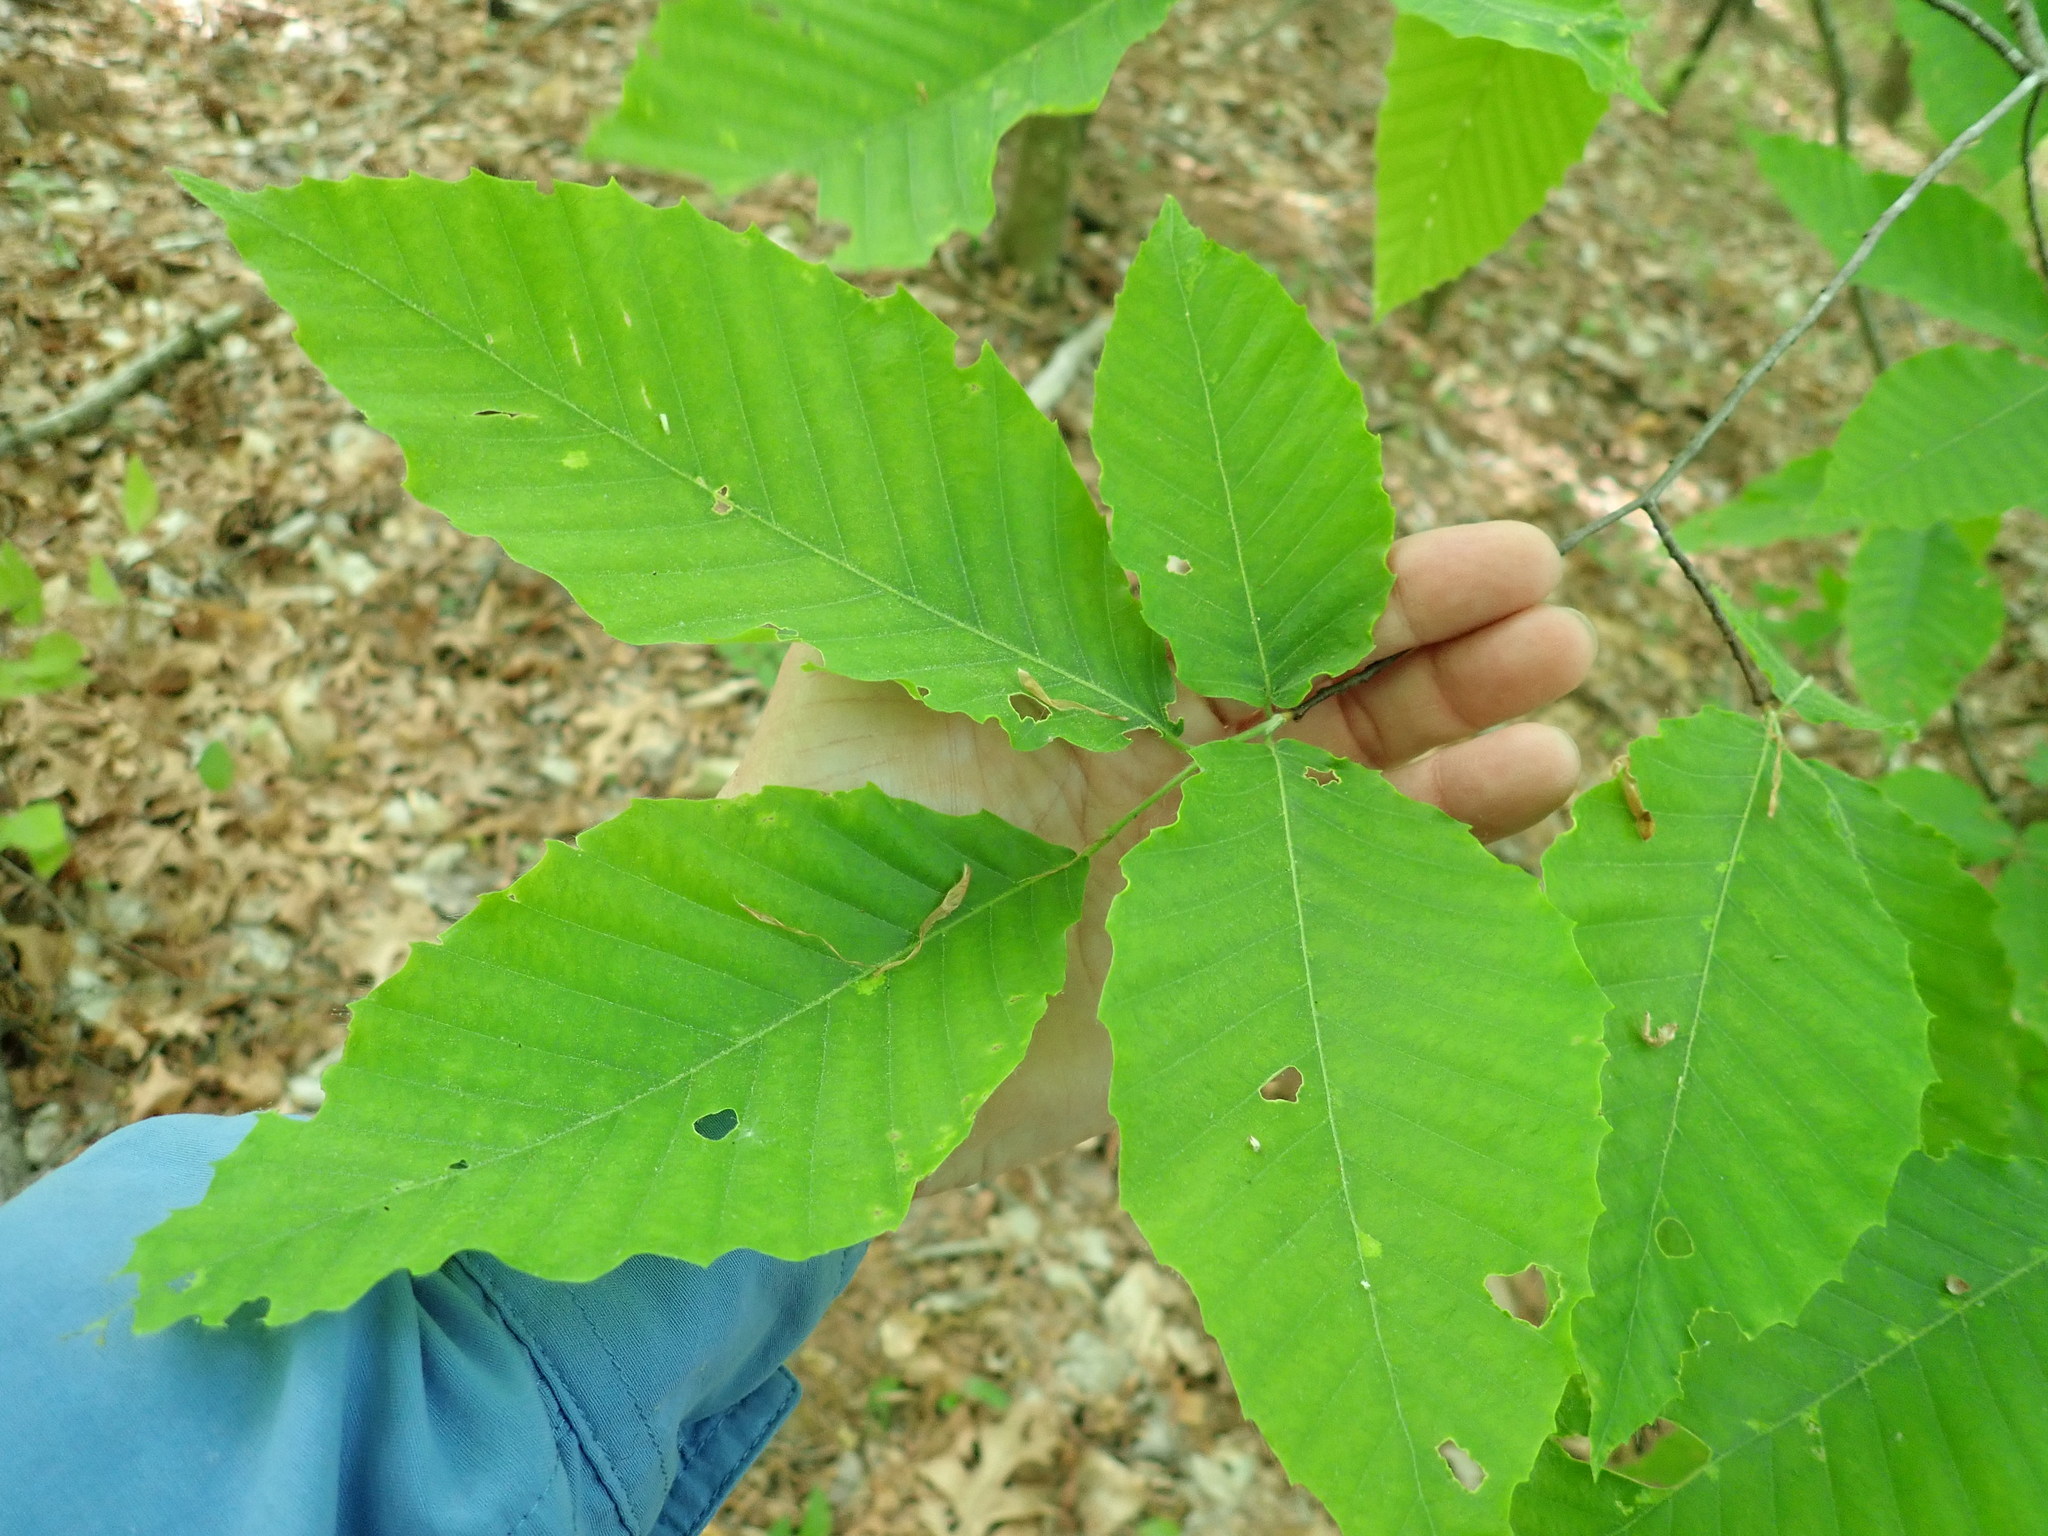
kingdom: Plantae
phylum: Tracheophyta
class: Magnoliopsida
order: Fagales
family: Fagaceae
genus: Fagus
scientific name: Fagus grandifolia
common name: American beech
